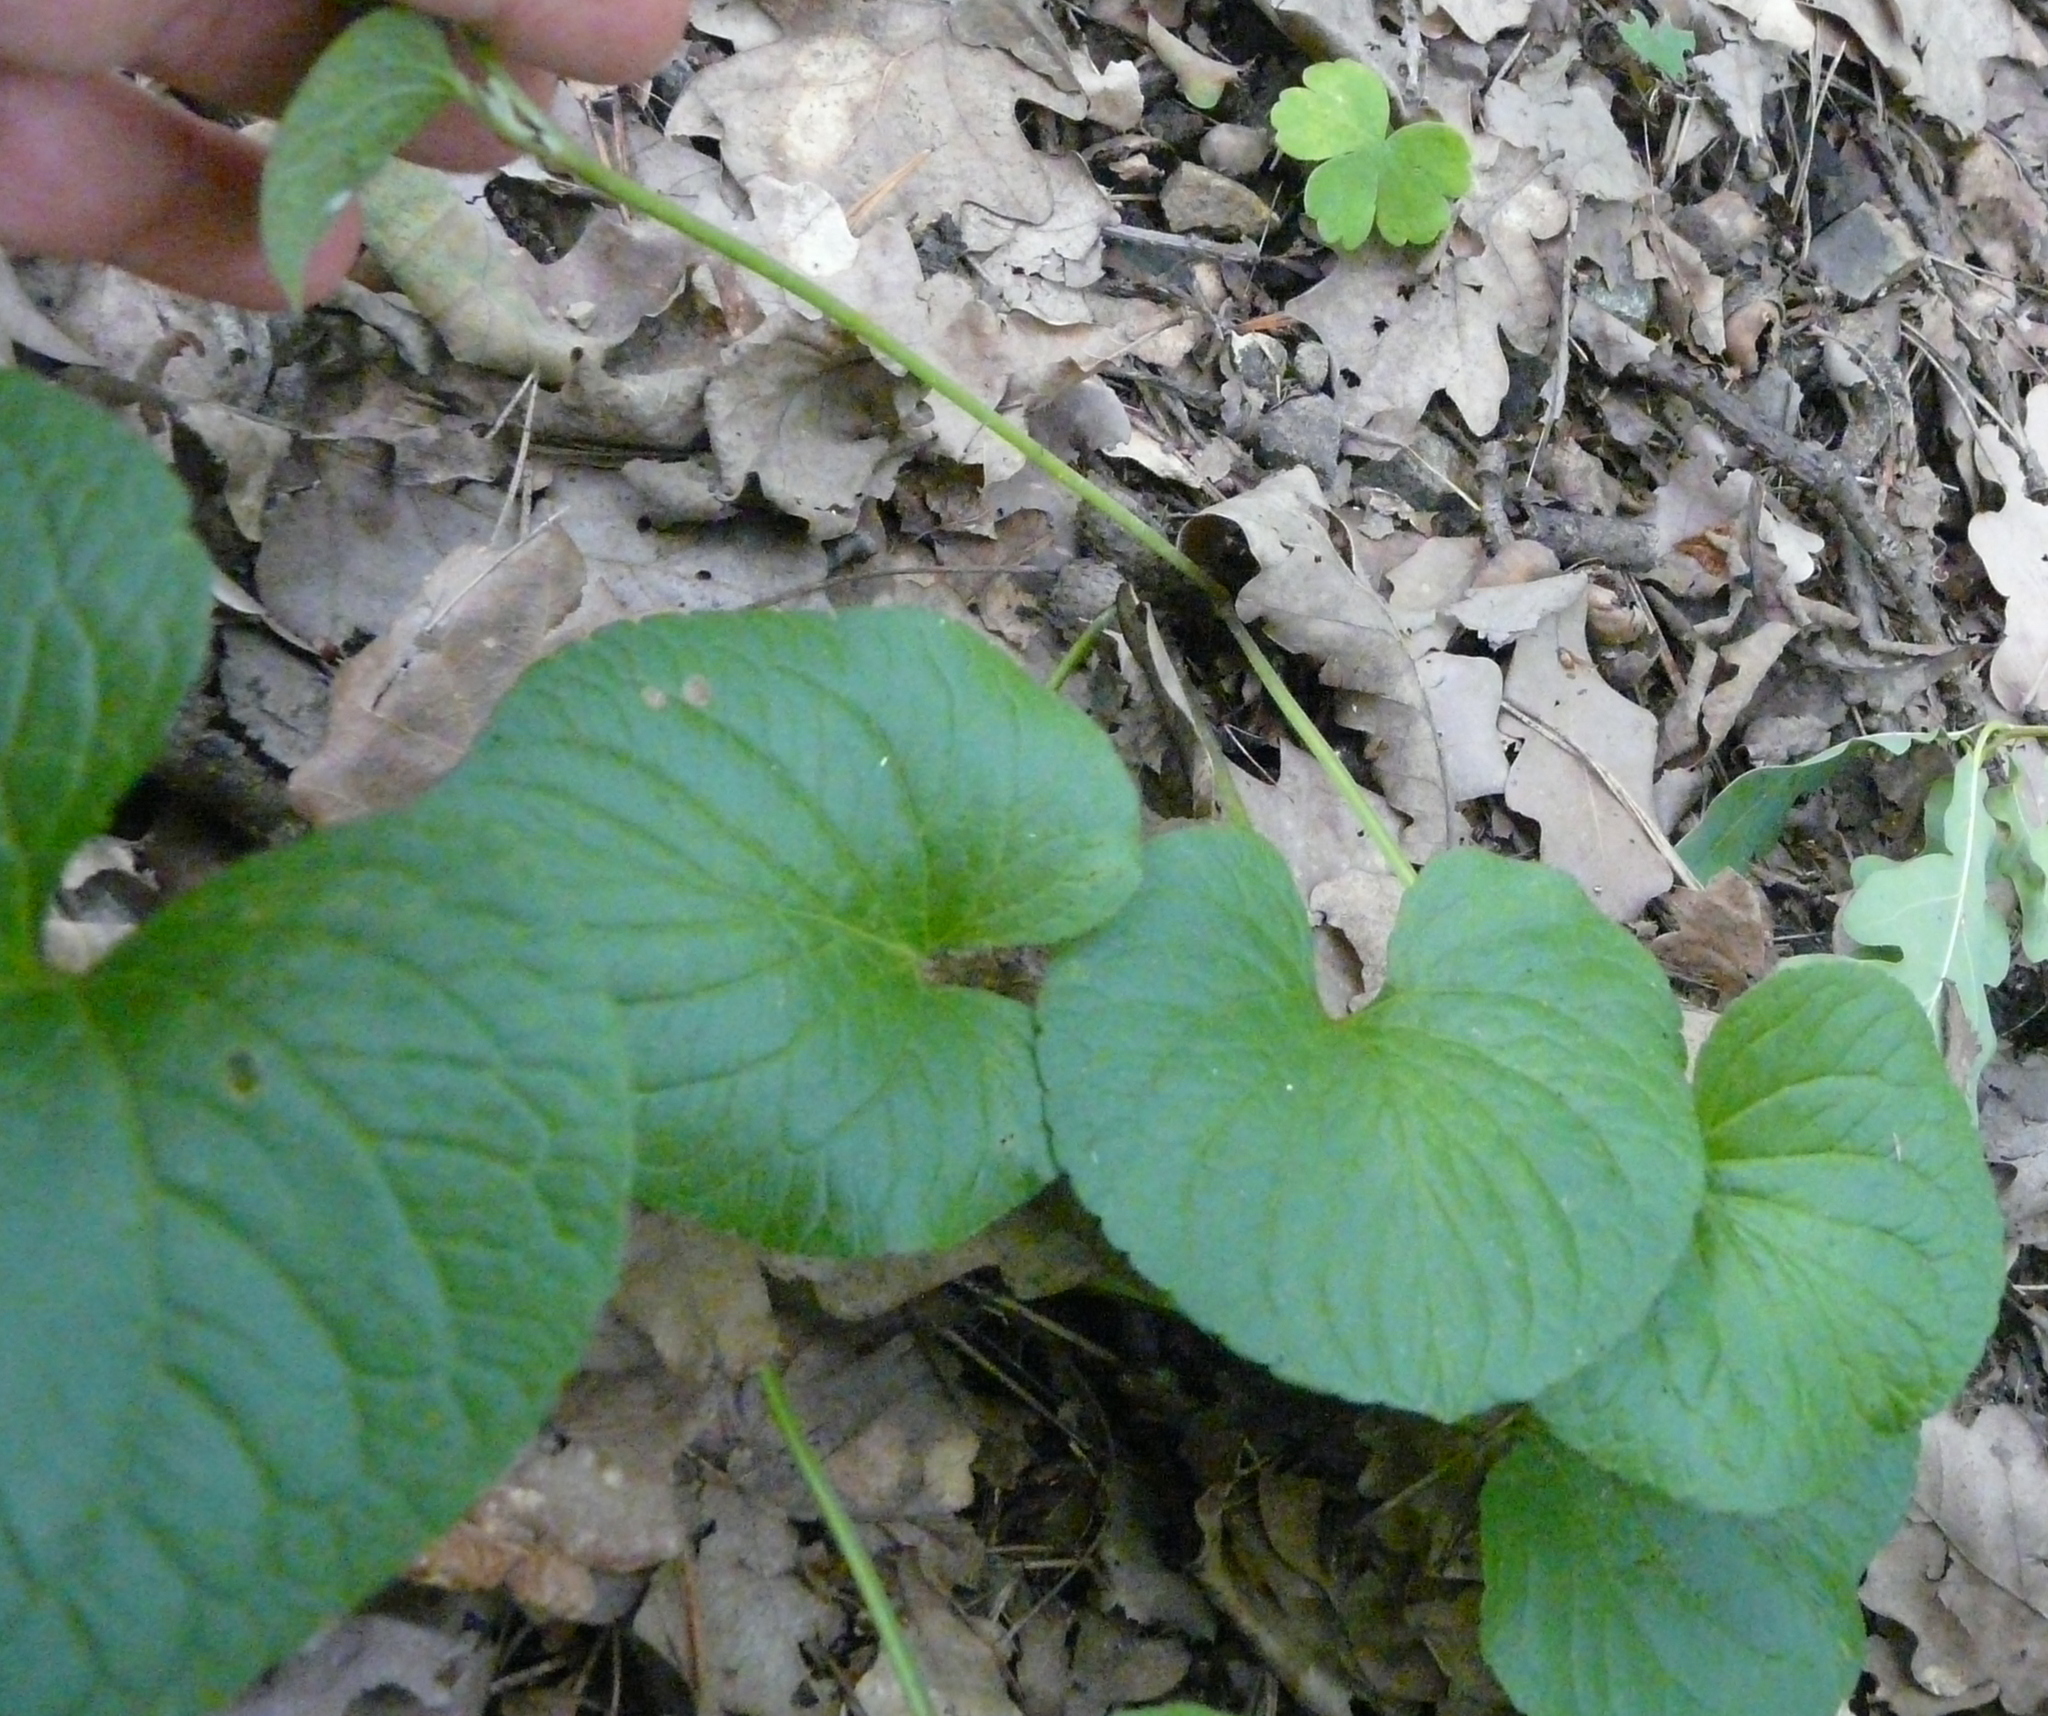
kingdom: Plantae
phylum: Tracheophyta
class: Magnoliopsida
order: Malpighiales
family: Violaceae
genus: Viola
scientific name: Viola mirabilis
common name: Wonder violet
